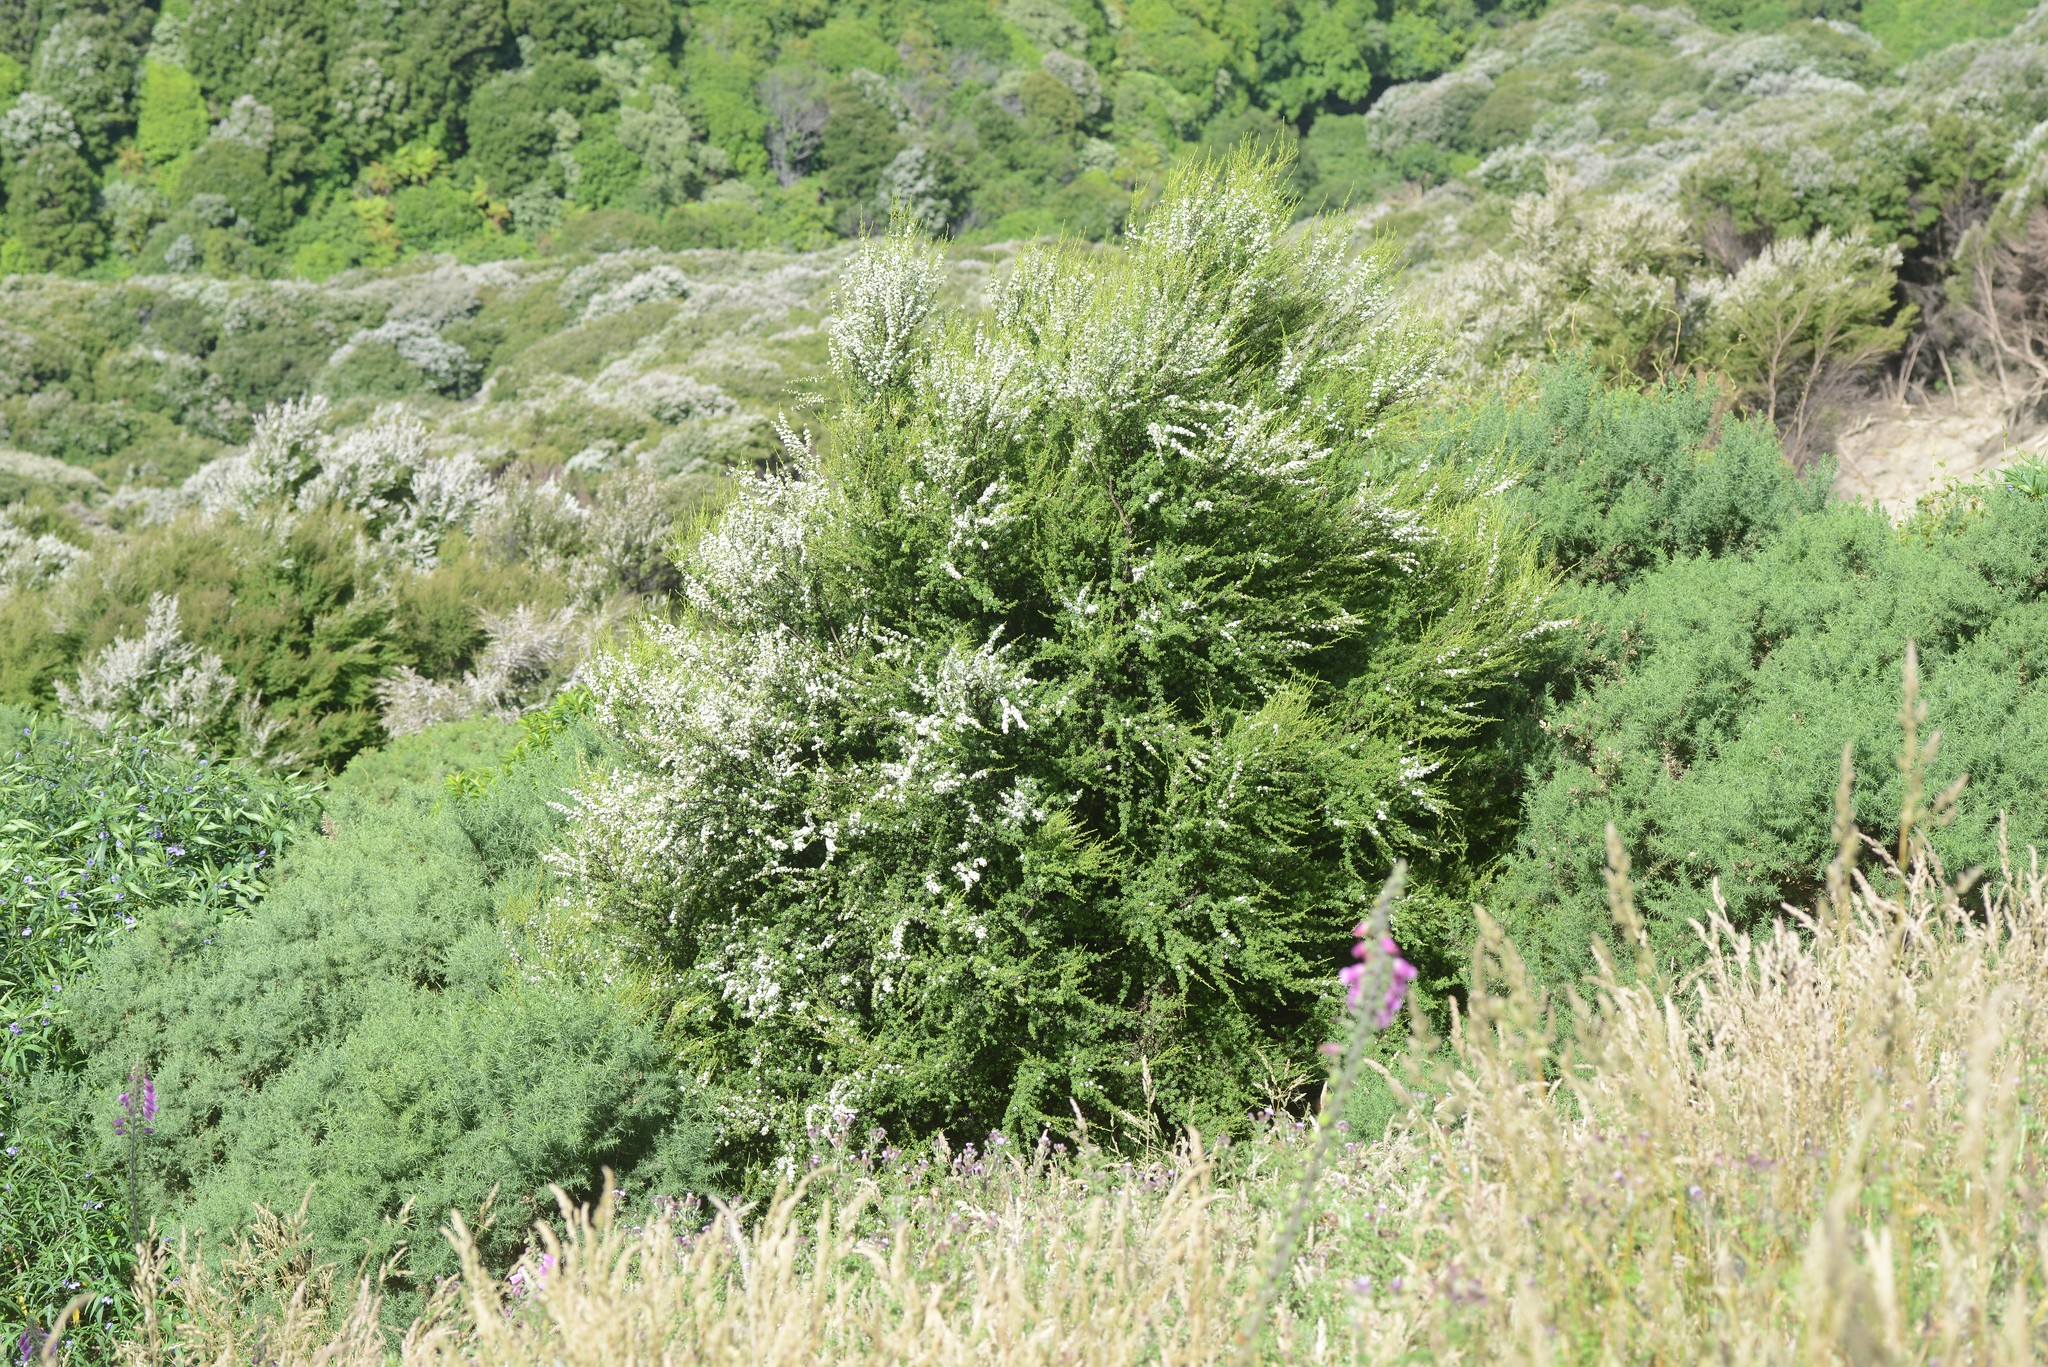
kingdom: Plantae
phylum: Tracheophyta
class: Magnoliopsida
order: Myrtales
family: Myrtaceae
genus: Kunzea
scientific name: Kunzea robusta
